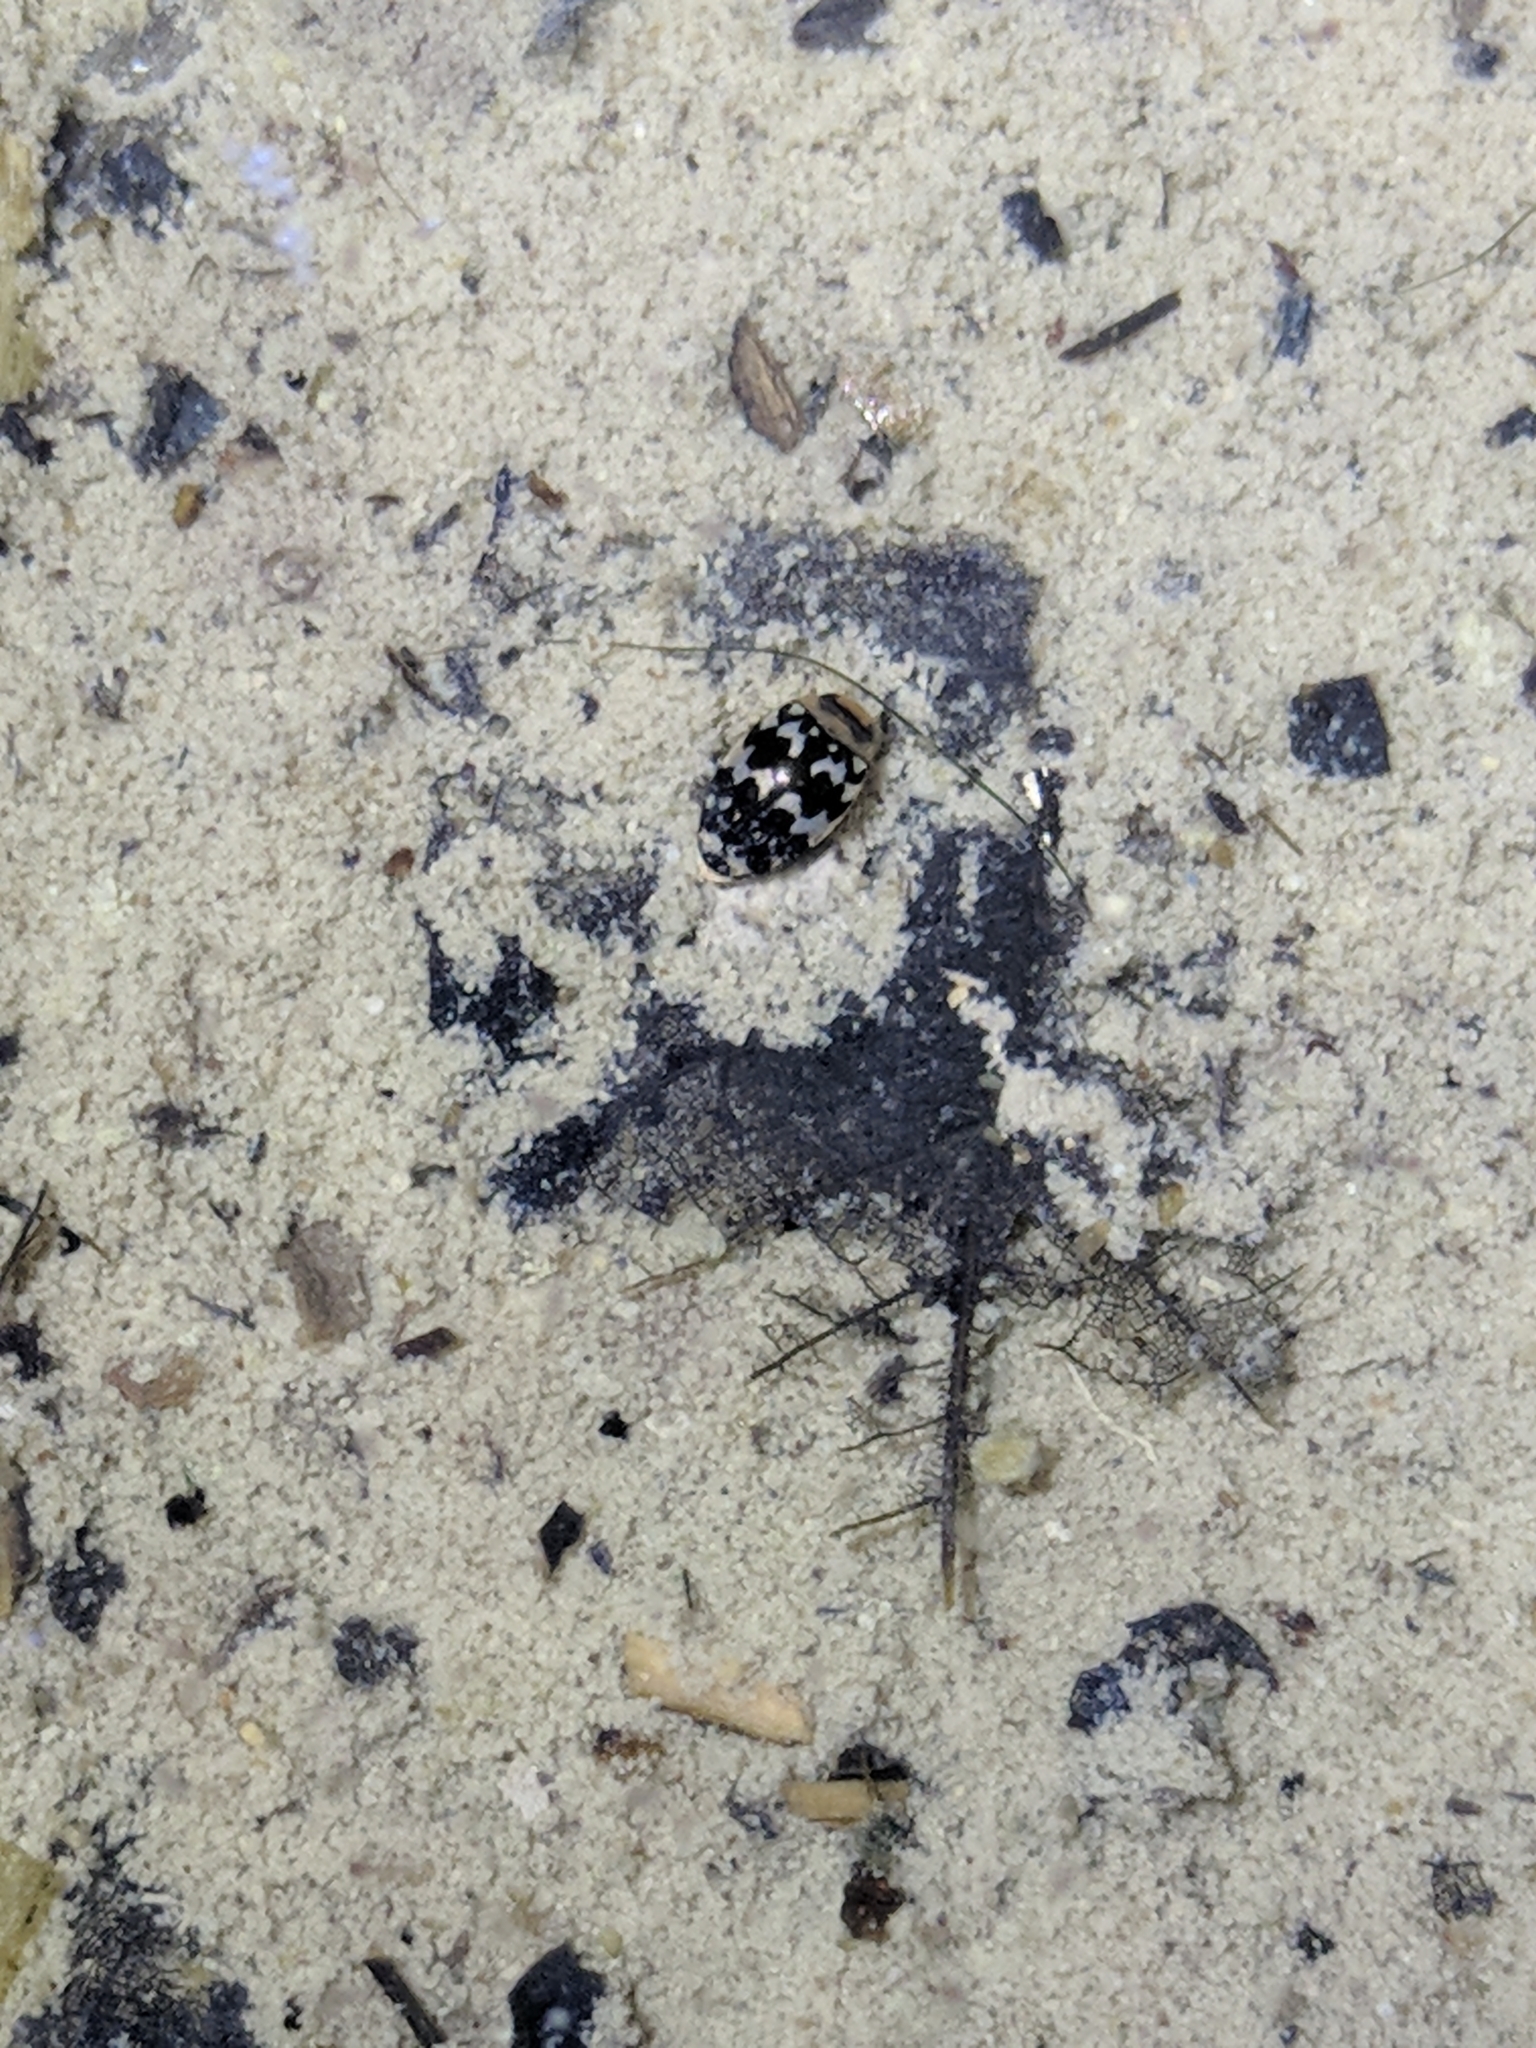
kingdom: Animalia
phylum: Arthropoda
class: Insecta
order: Coleoptera
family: Dytiscidae
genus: Laccophilus
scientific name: Laccophilus pictus
